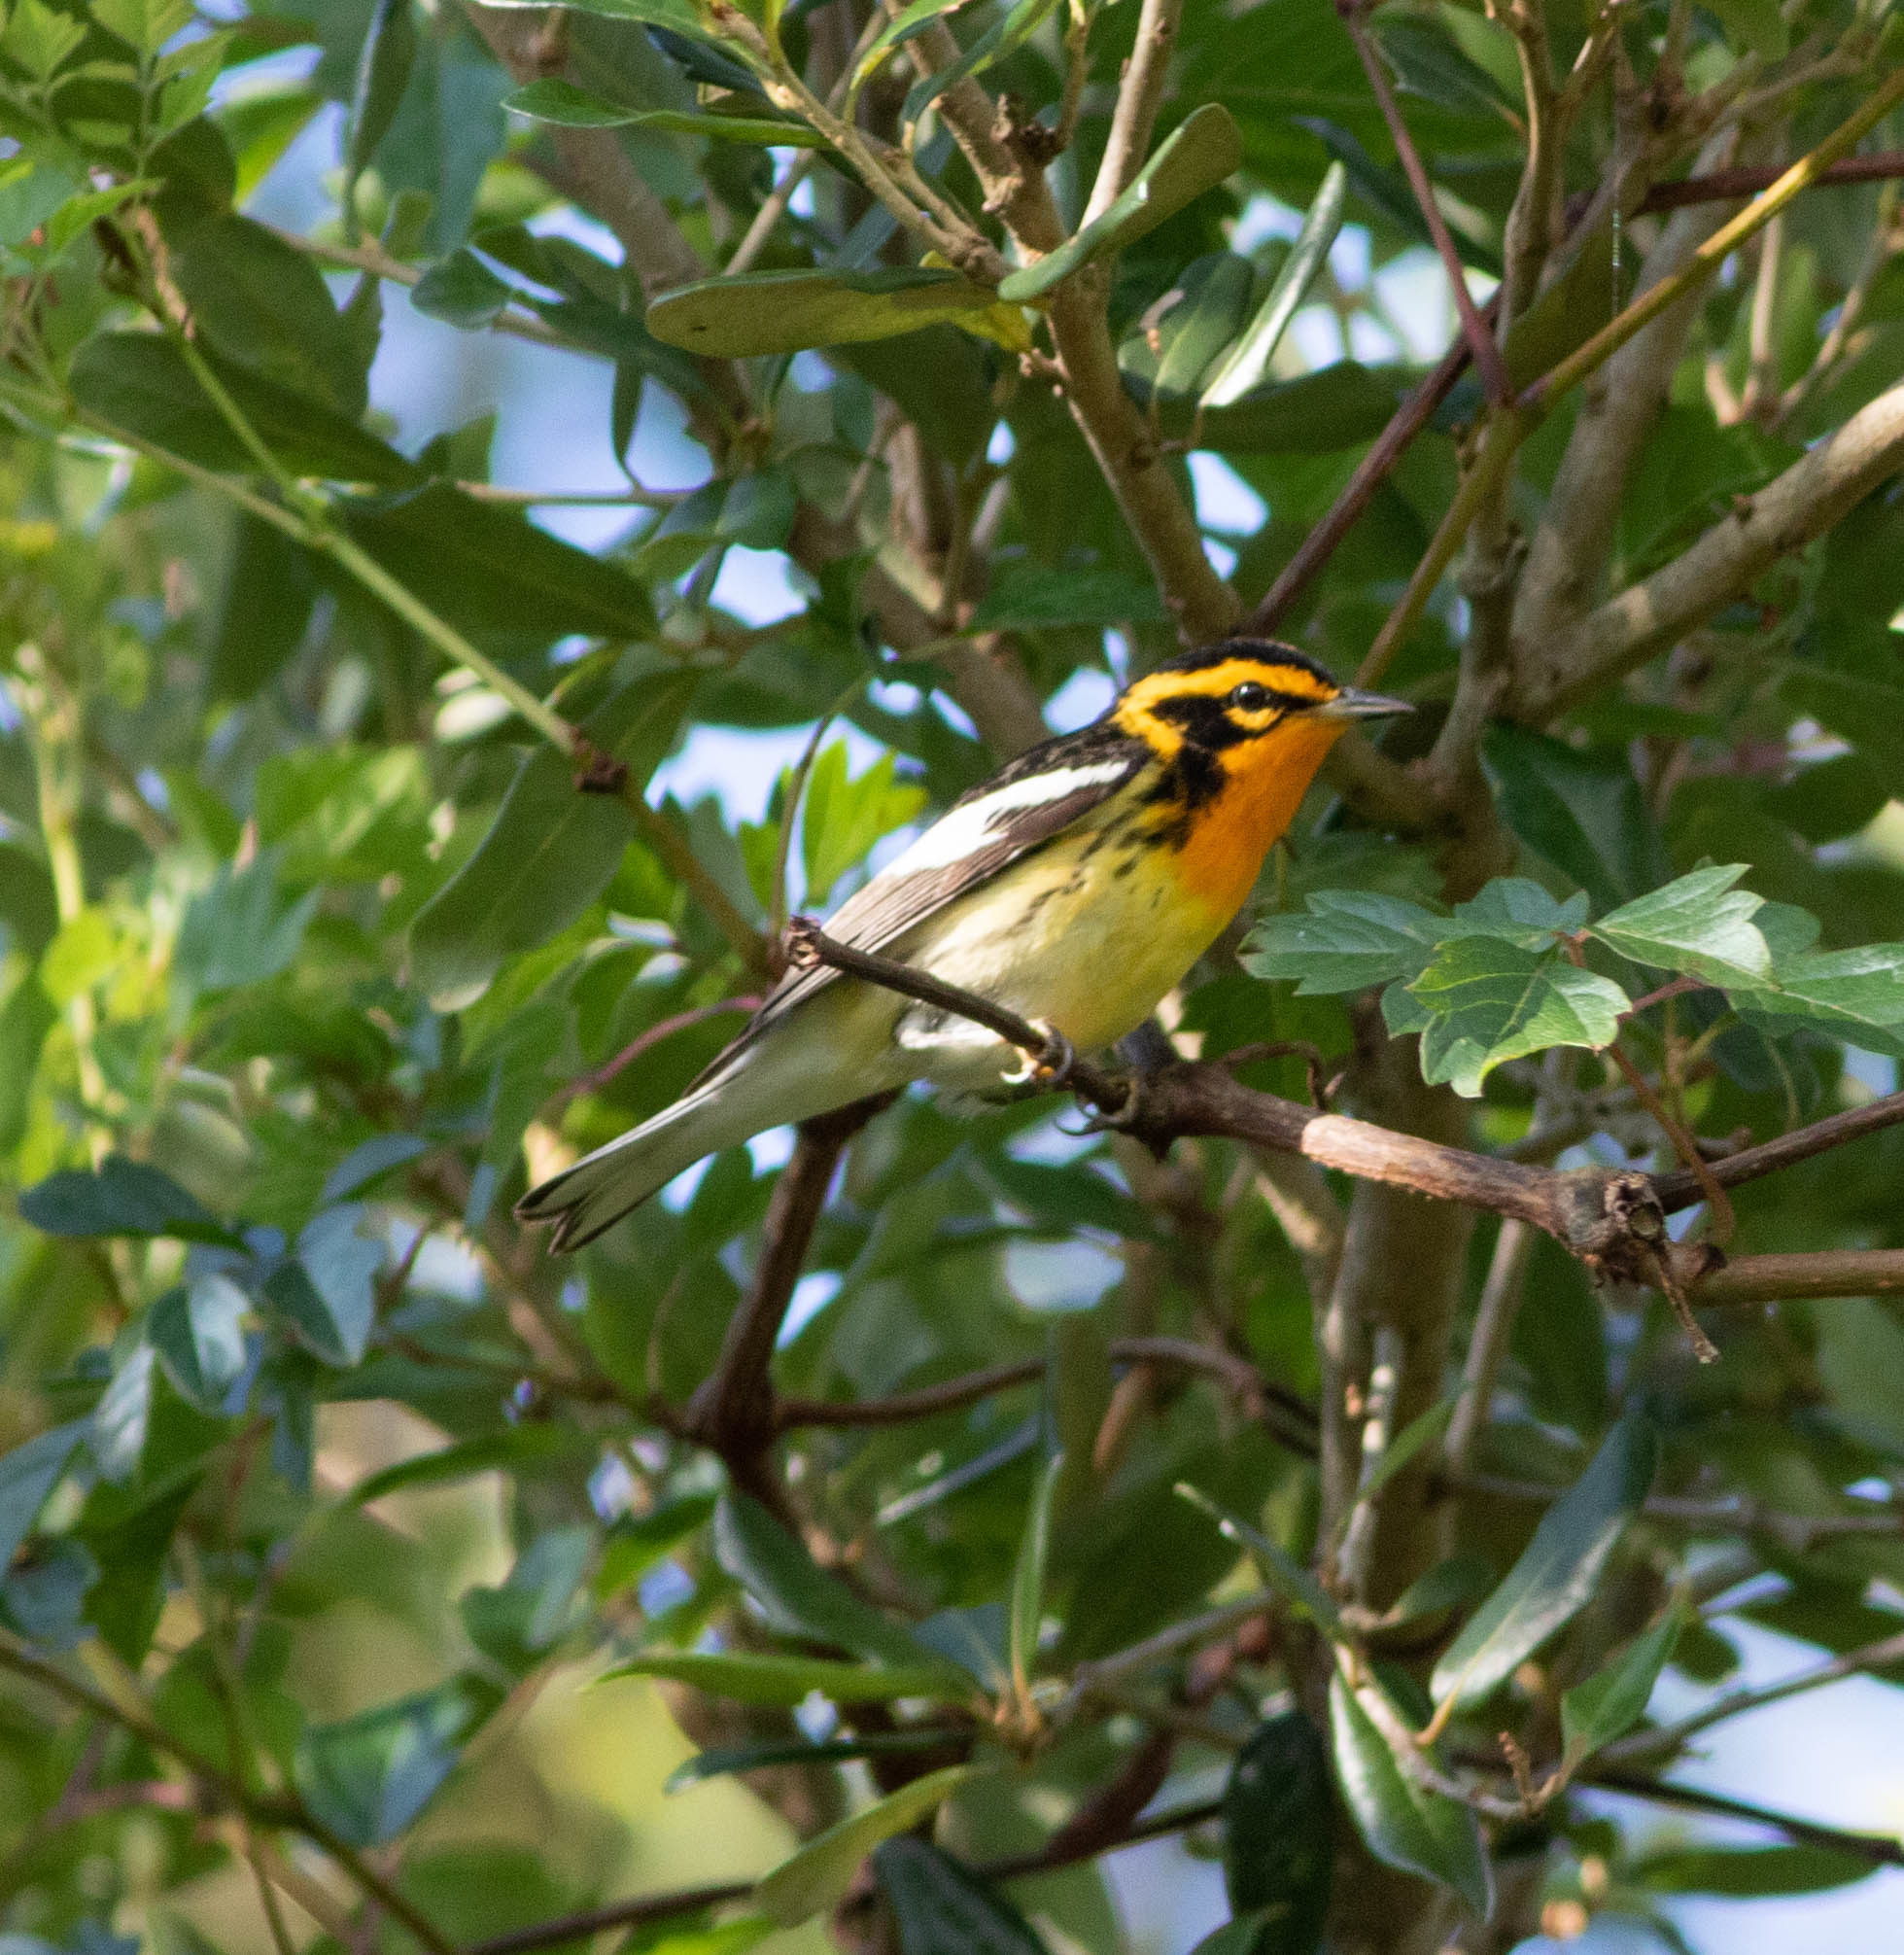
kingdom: Animalia
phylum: Chordata
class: Aves
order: Passeriformes
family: Parulidae
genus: Setophaga
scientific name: Setophaga fusca
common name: Blackburnian warbler
